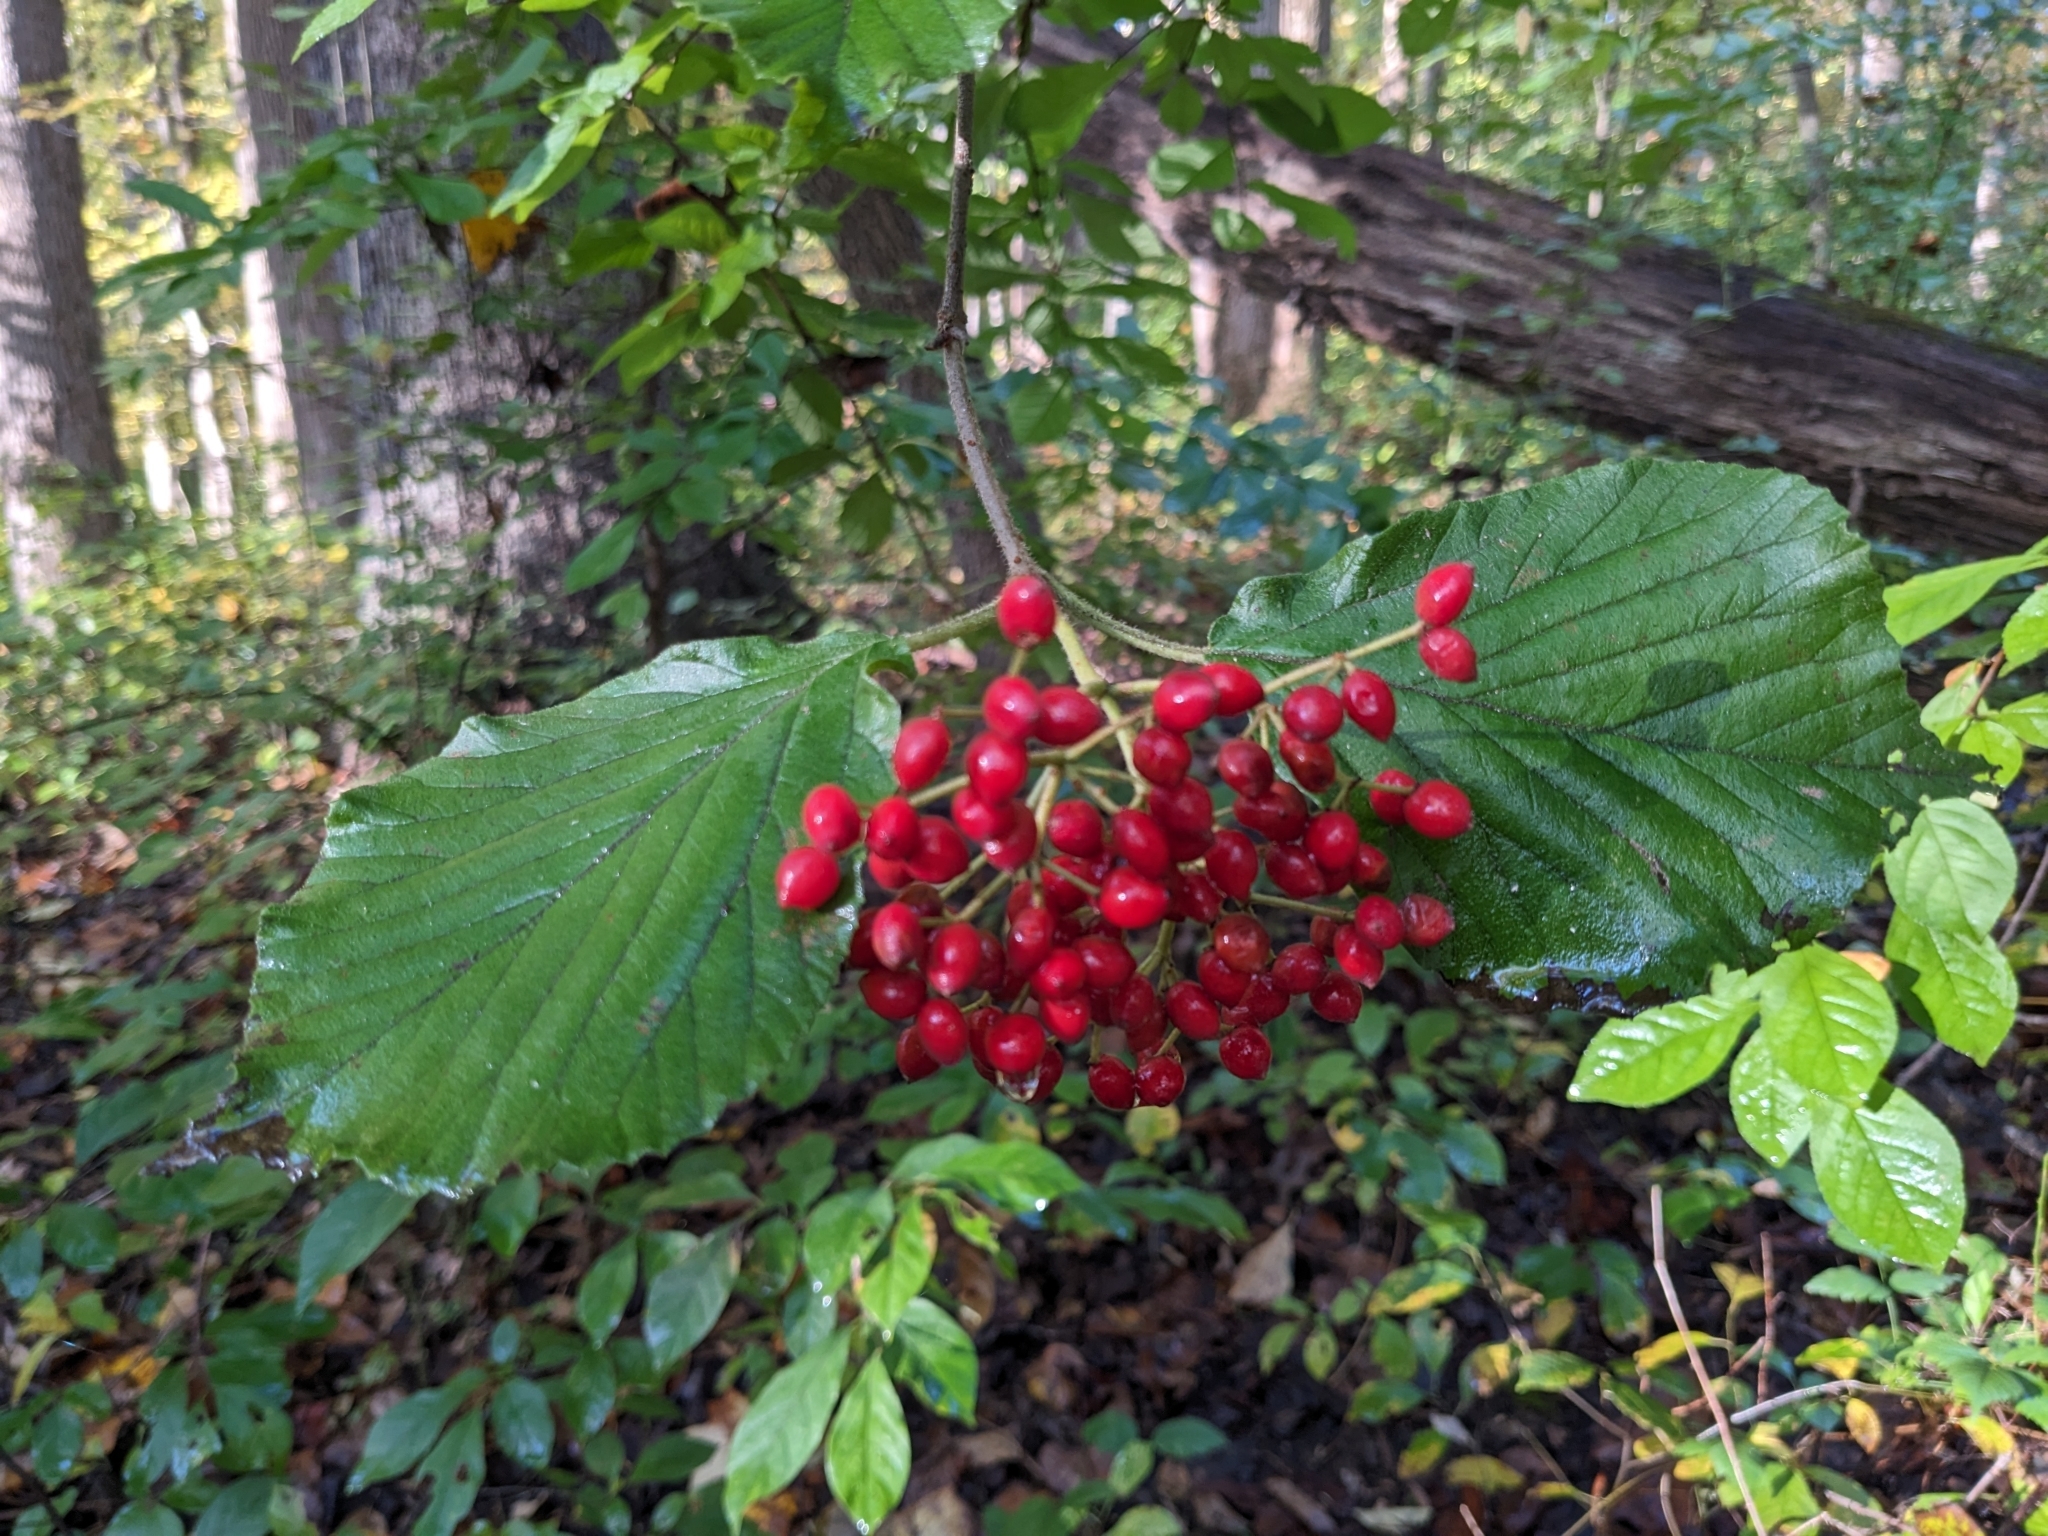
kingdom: Plantae
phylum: Tracheophyta
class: Magnoliopsida
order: Dipsacales
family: Viburnaceae
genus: Viburnum
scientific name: Viburnum dilatatum
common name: Linden arrowwood
